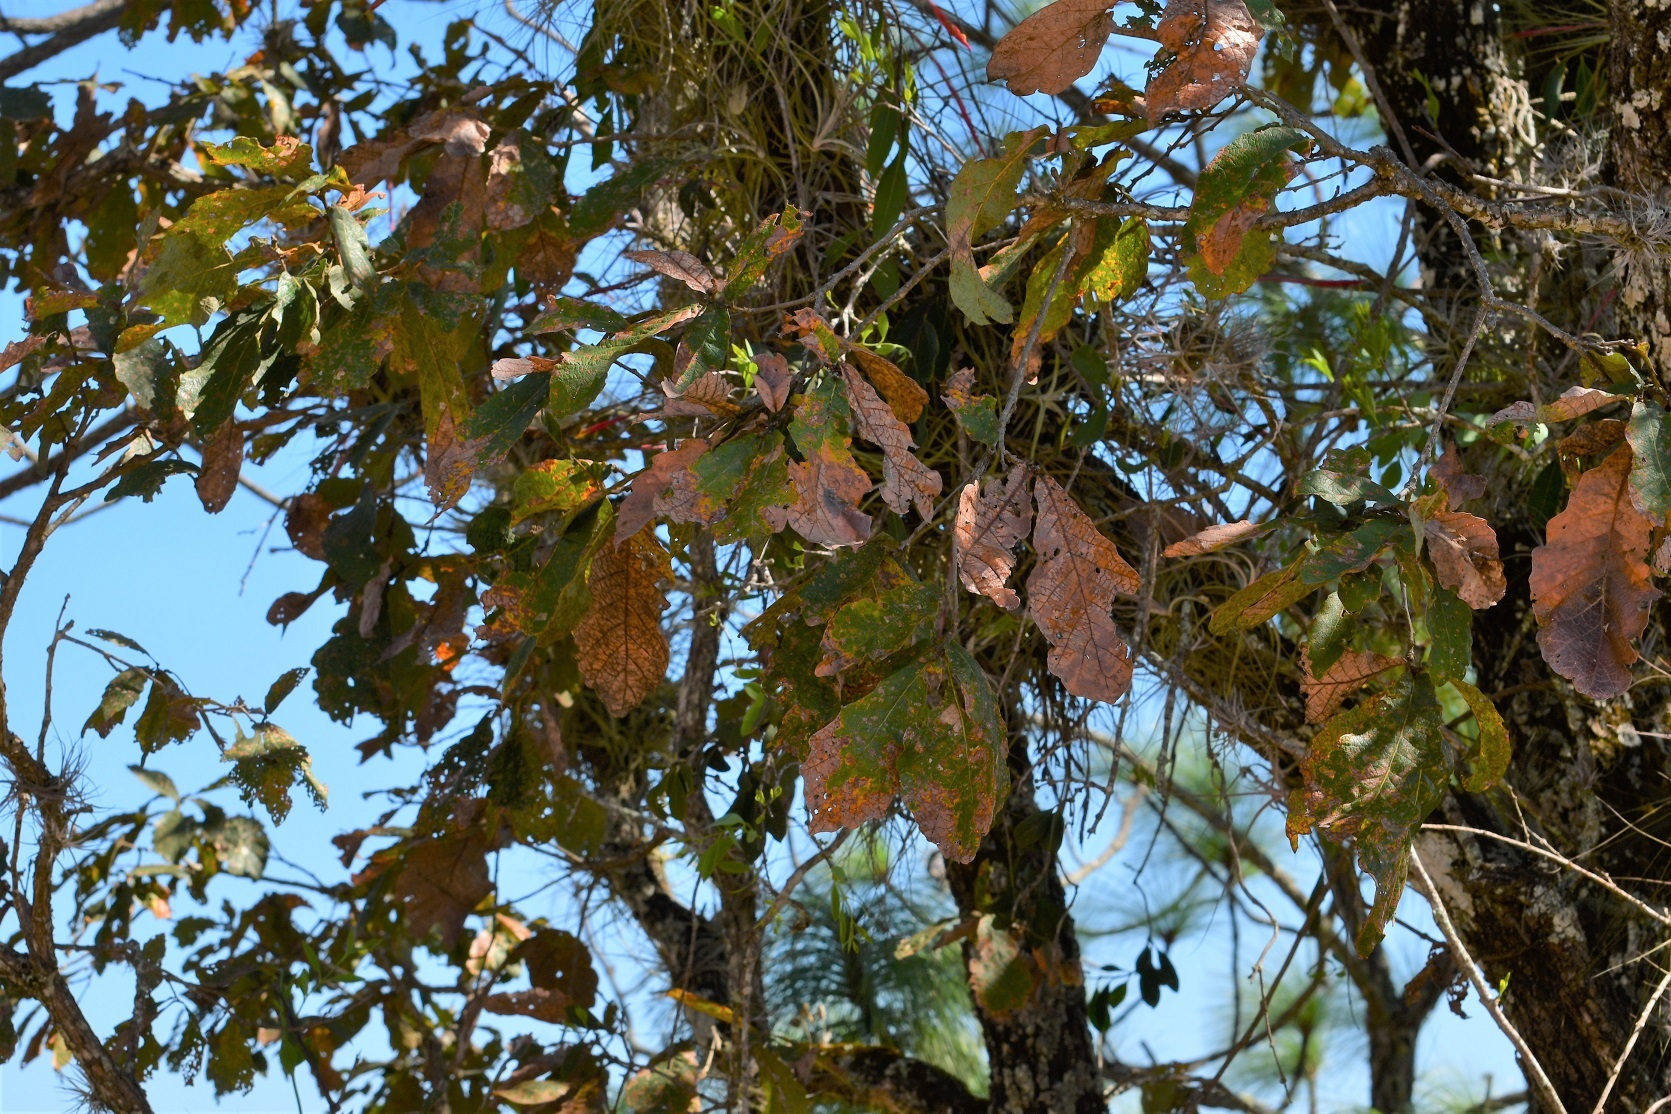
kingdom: Plantae
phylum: Tracheophyta
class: Magnoliopsida
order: Fagales
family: Fagaceae
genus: Quercus
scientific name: Quercus melissae
